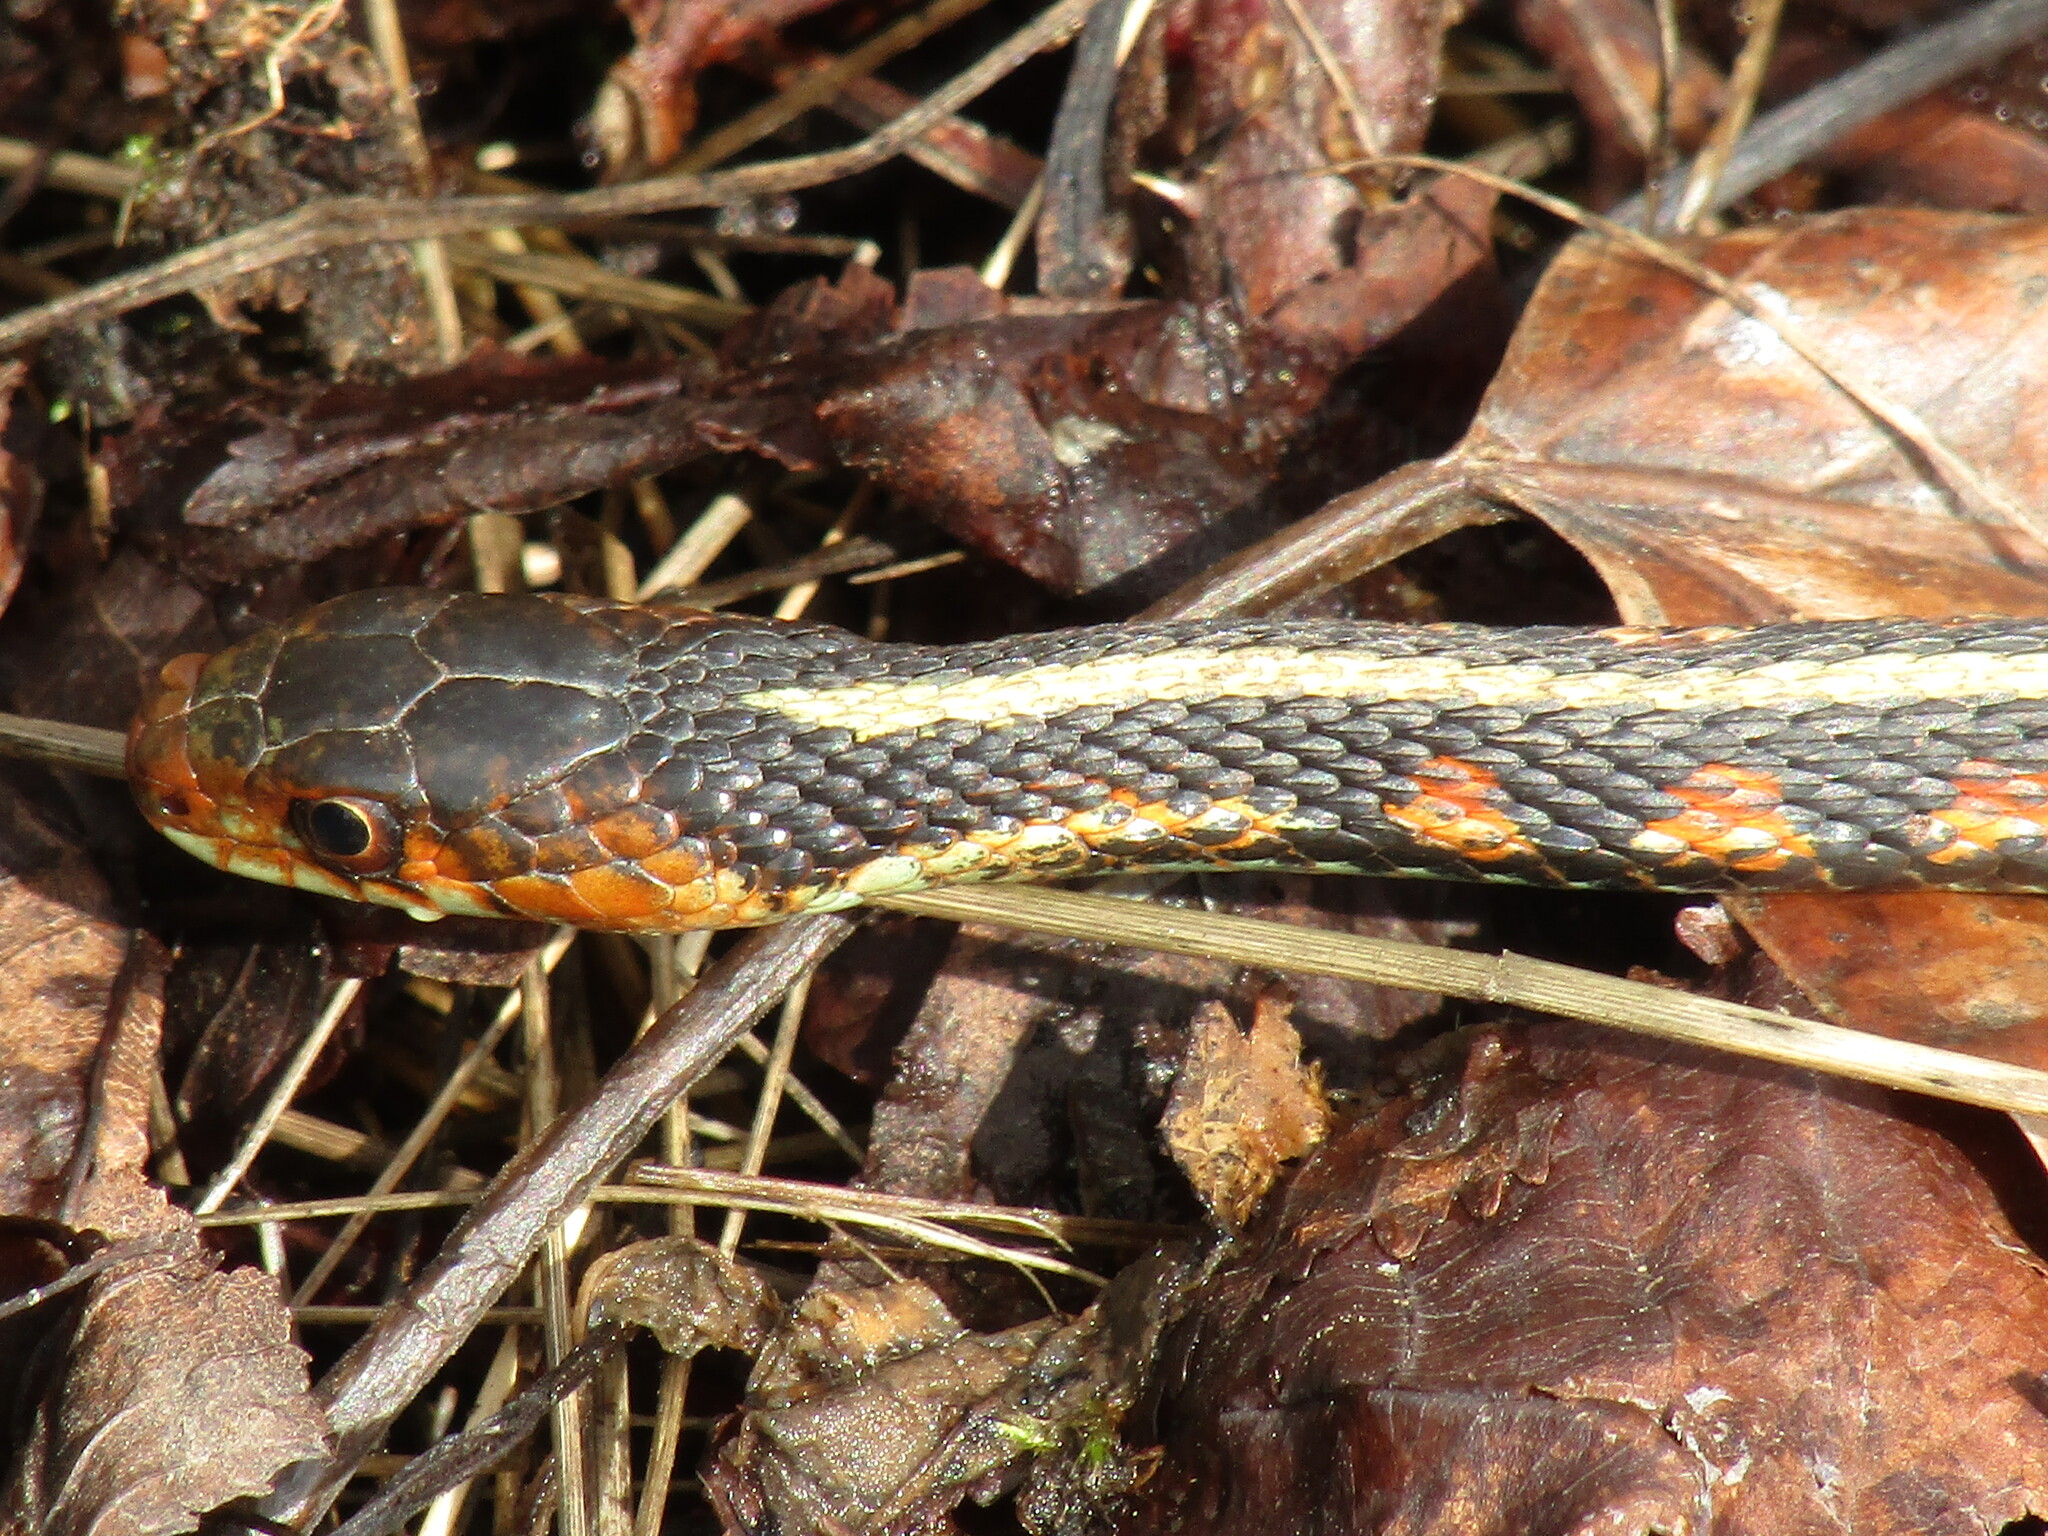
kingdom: Animalia
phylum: Chordata
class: Squamata
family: Colubridae
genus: Thamnophis
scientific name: Thamnophis sirtalis
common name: Common garter snake
